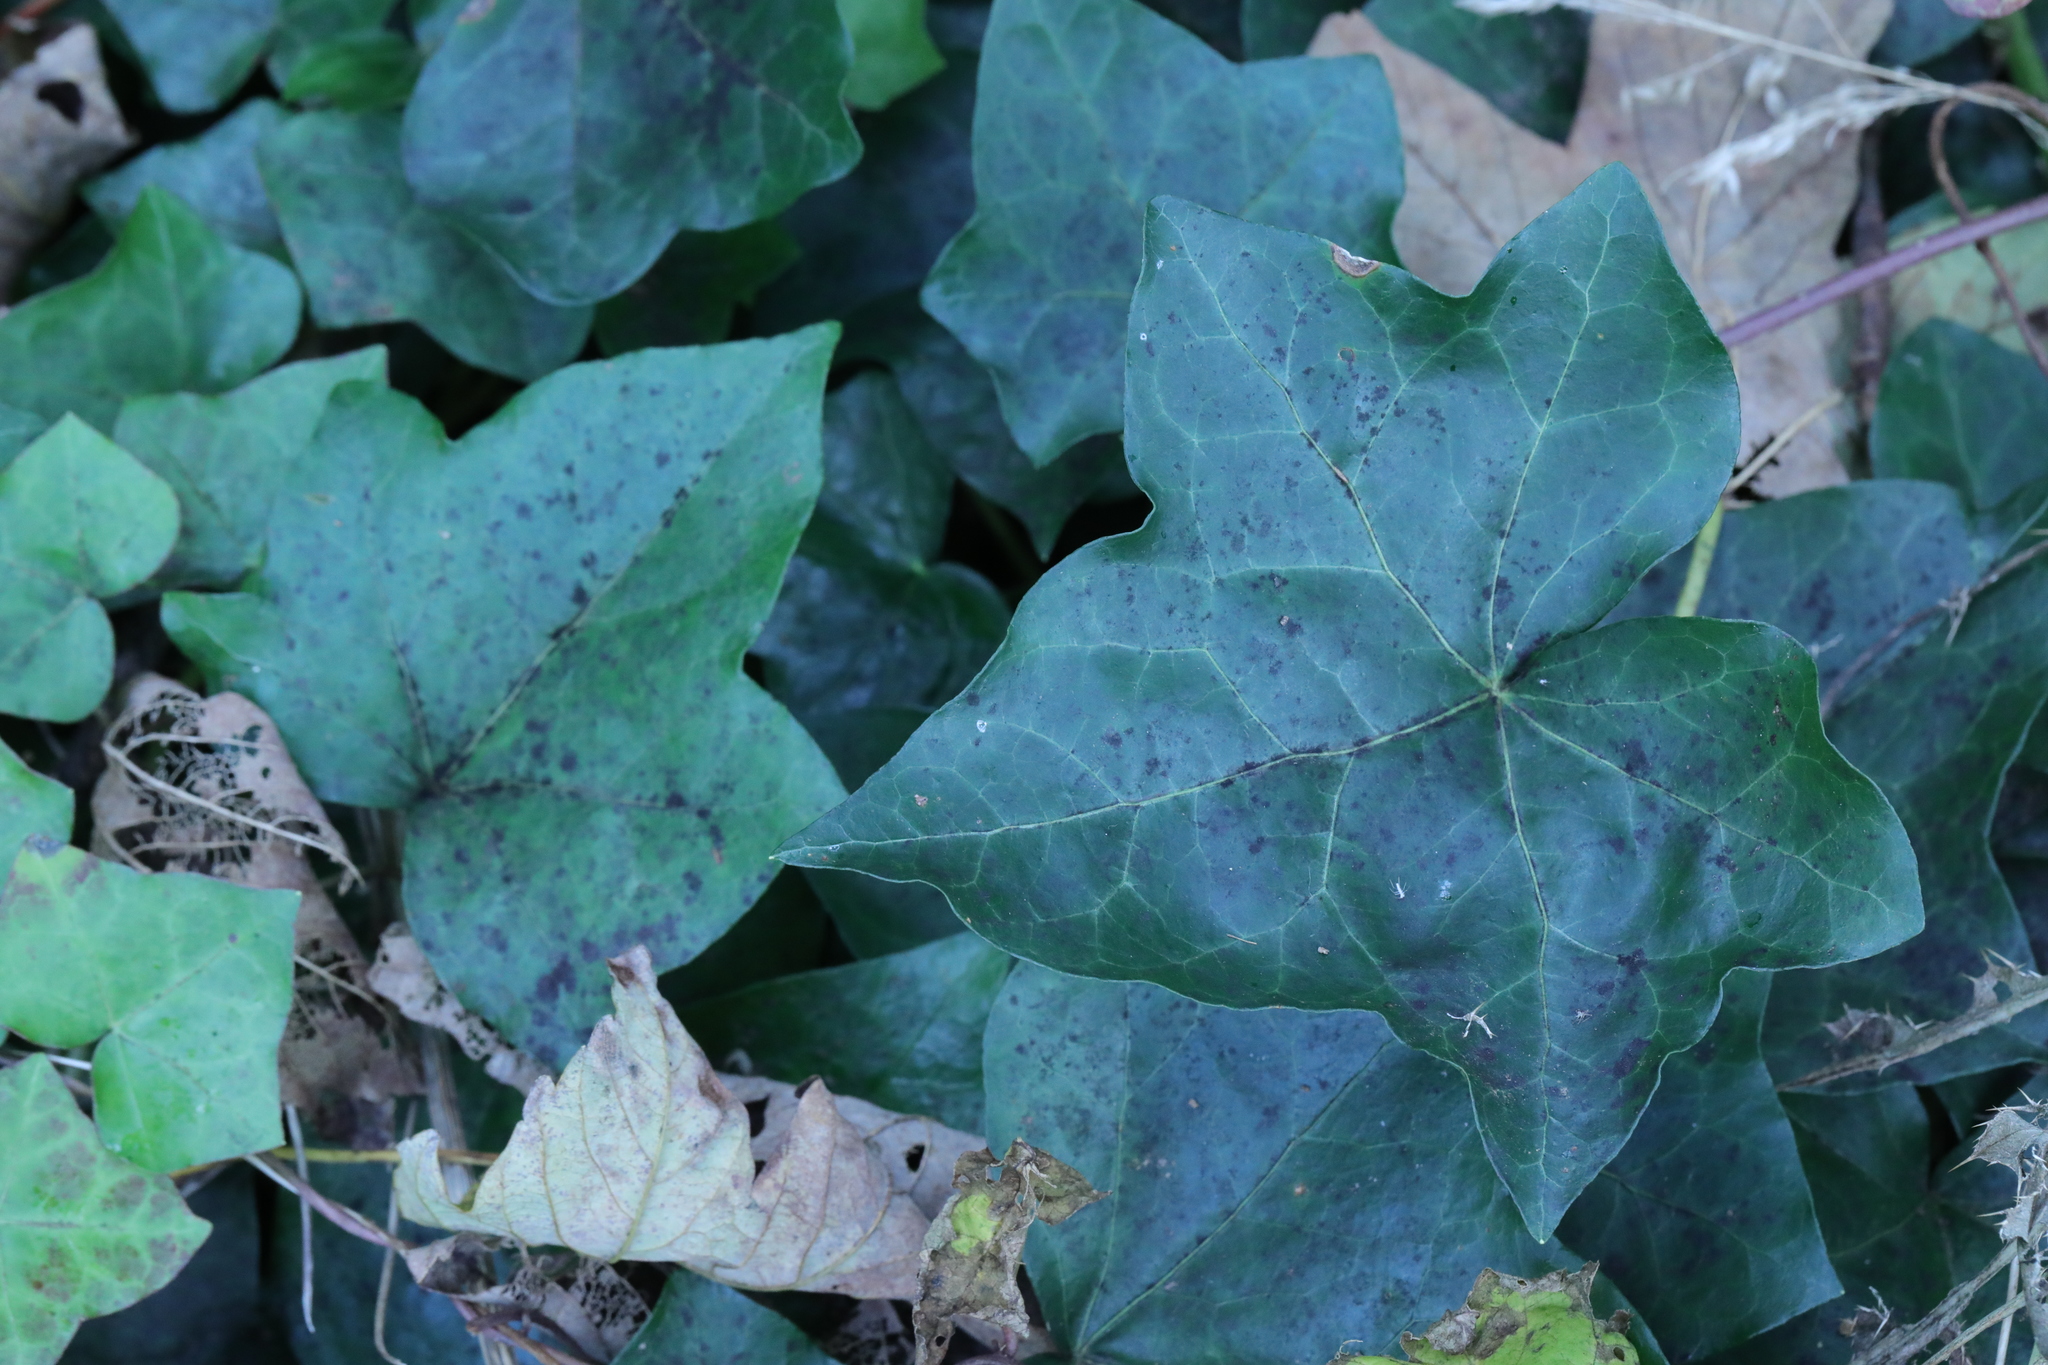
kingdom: Plantae
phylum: Tracheophyta
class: Magnoliopsida
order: Apiales
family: Araliaceae
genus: Hedera
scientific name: Hedera helix
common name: Ivy
